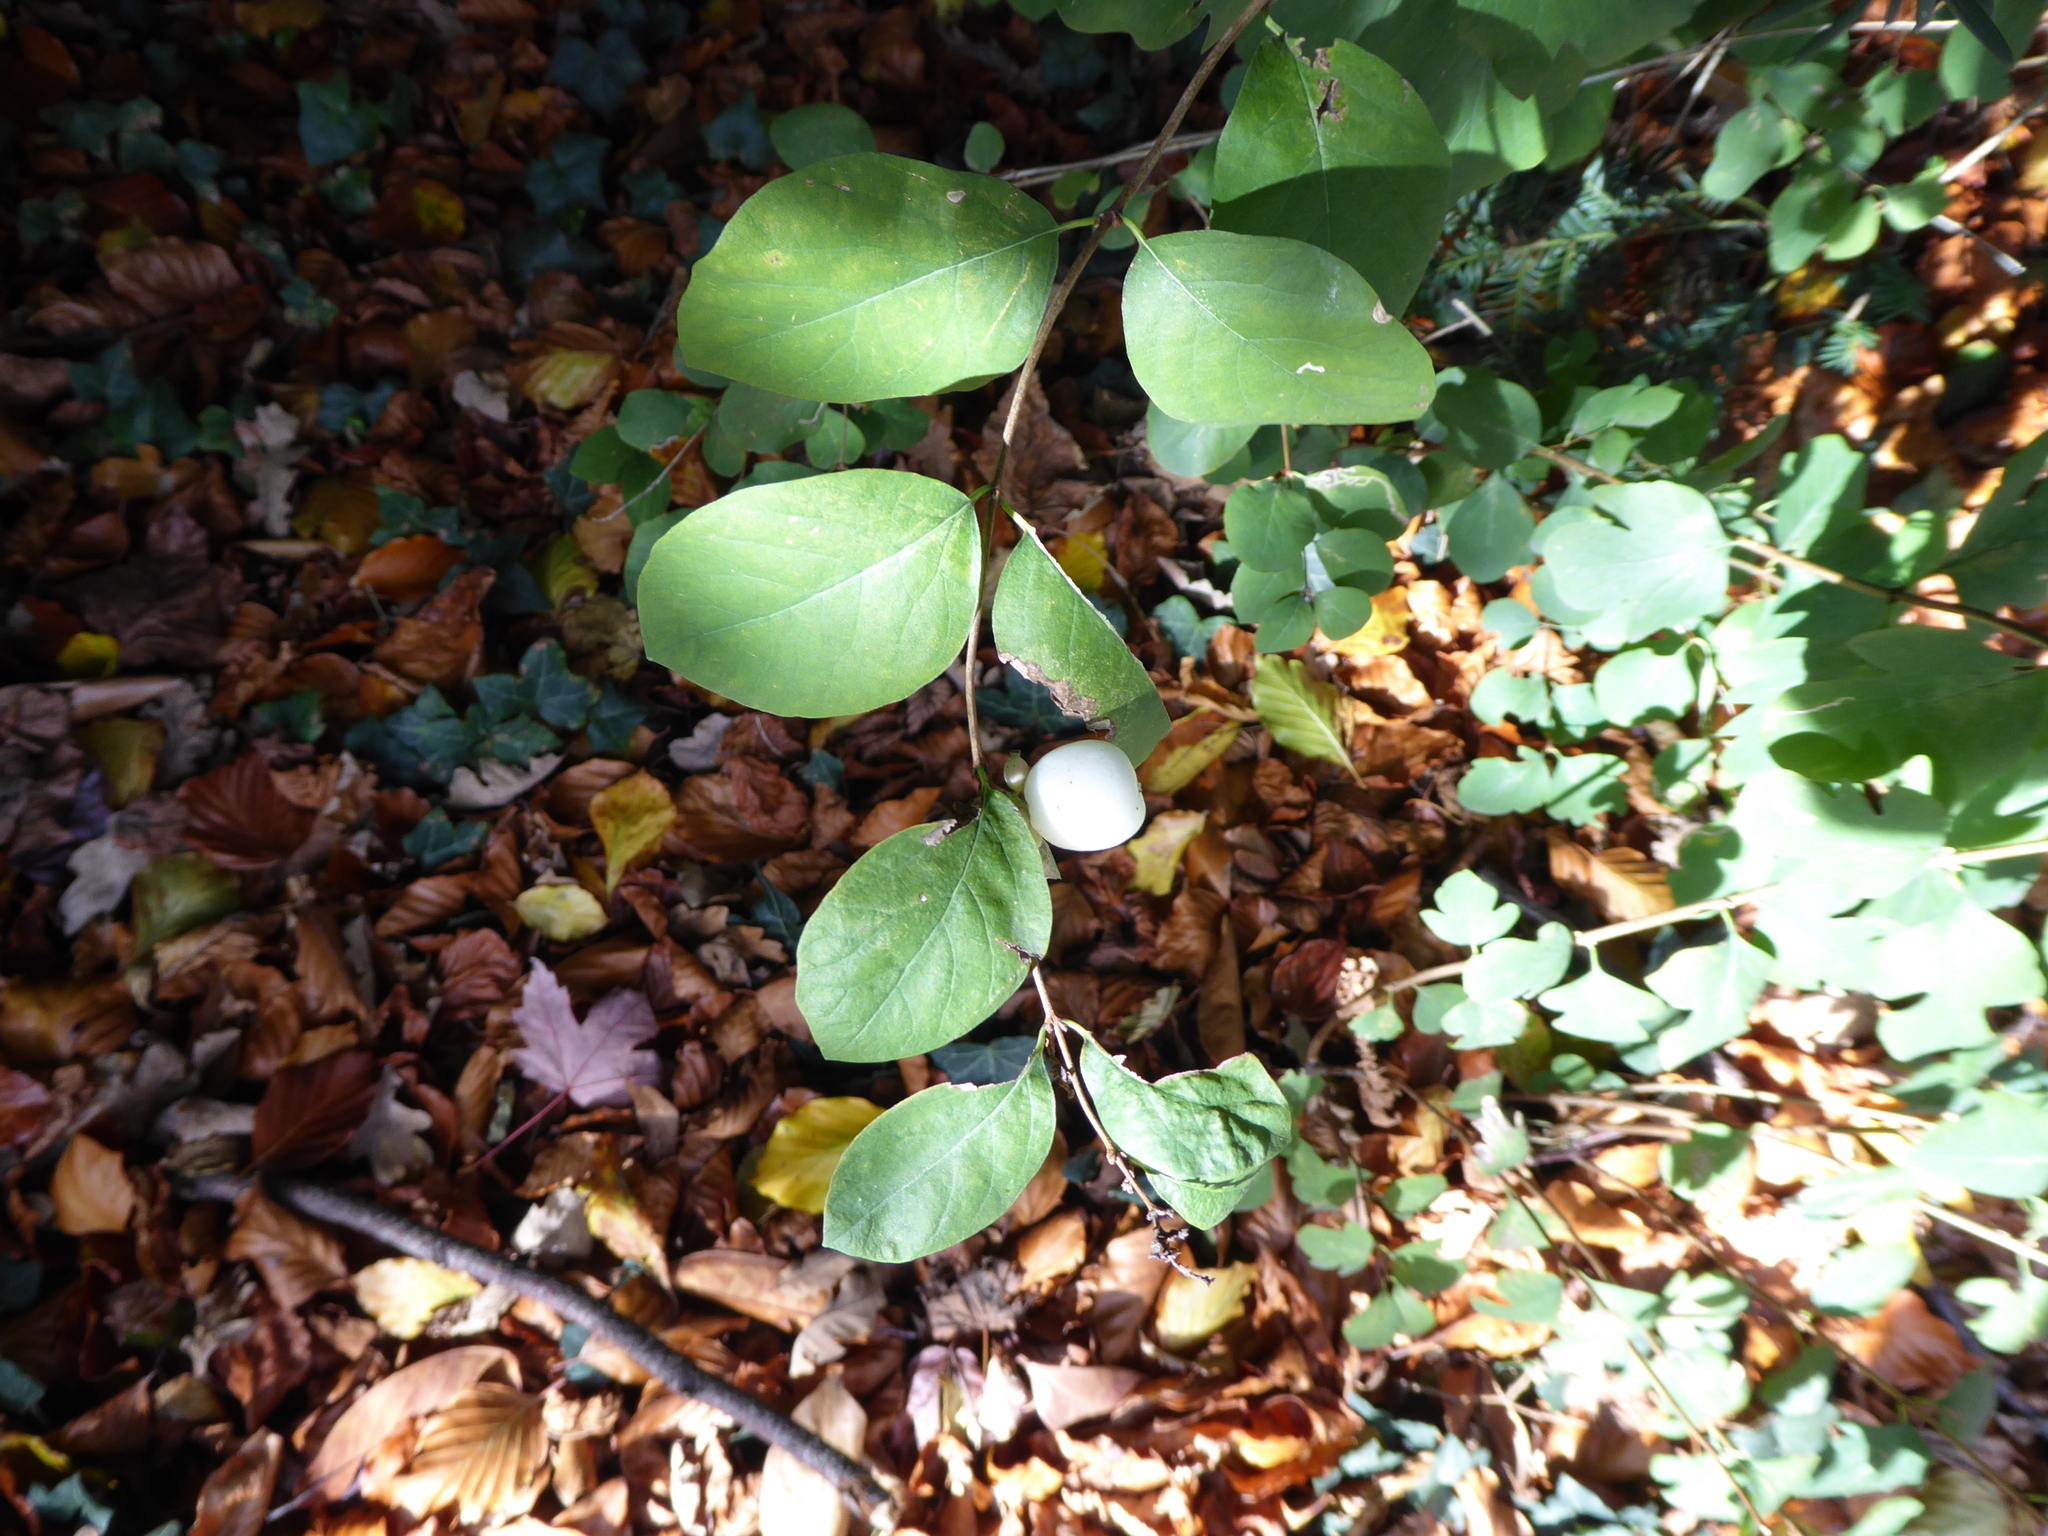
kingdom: Plantae
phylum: Tracheophyta
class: Magnoliopsida
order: Dipsacales
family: Caprifoliaceae
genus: Symphoricarpos
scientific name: Symphoricarpos albus
